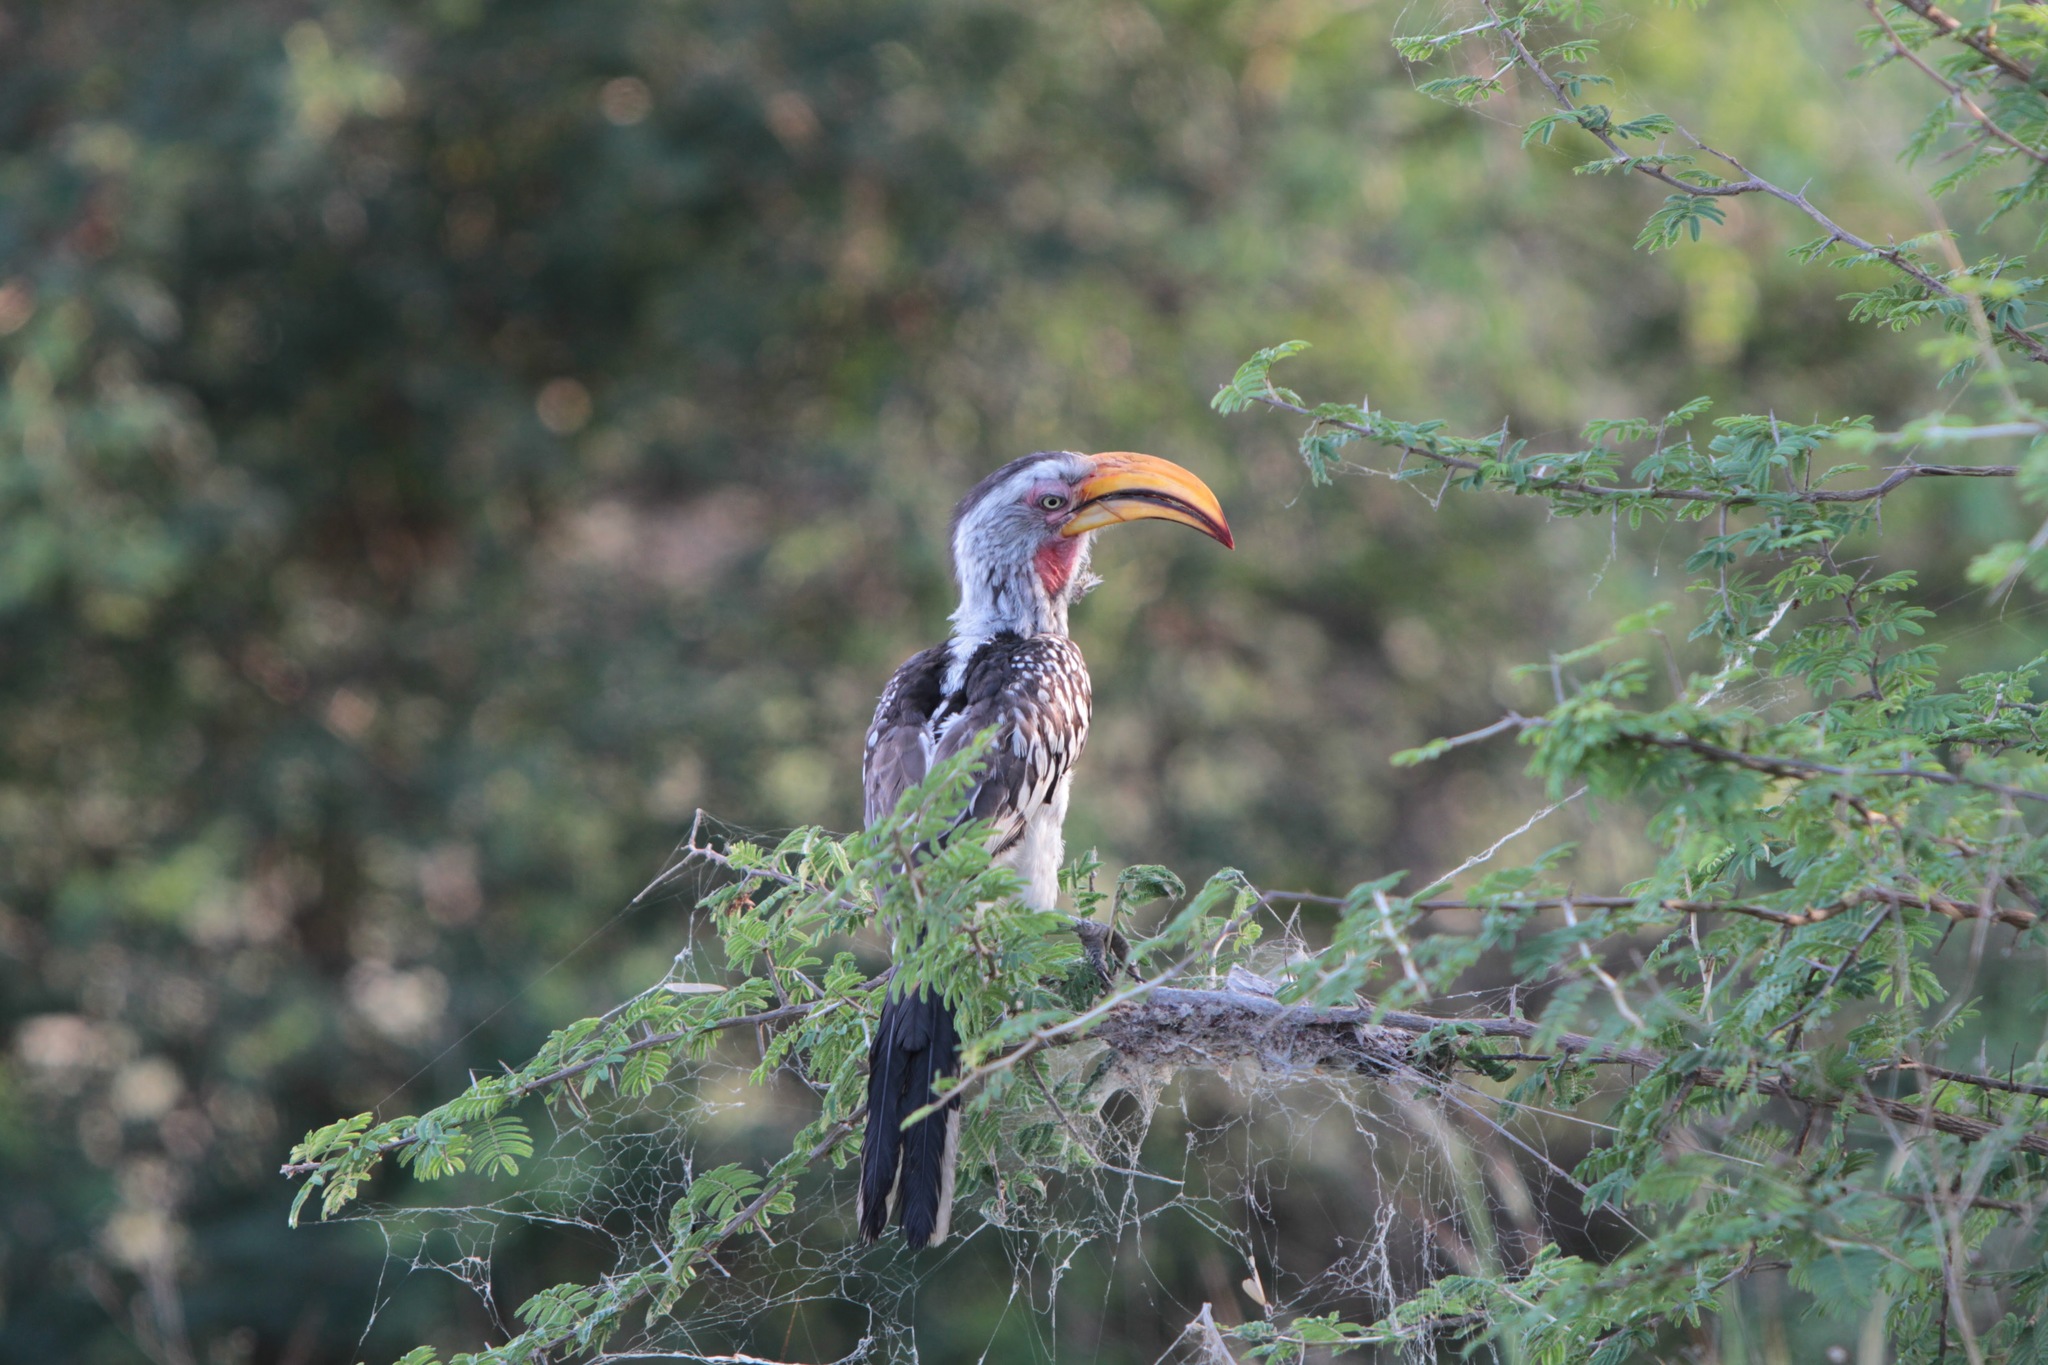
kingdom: Animalia
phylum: Chordata
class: Aves
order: Bucerotiformes
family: Bucerotidae
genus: Tockus
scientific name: Tockus leucomelas
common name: Southern yellow-billed hornbill
